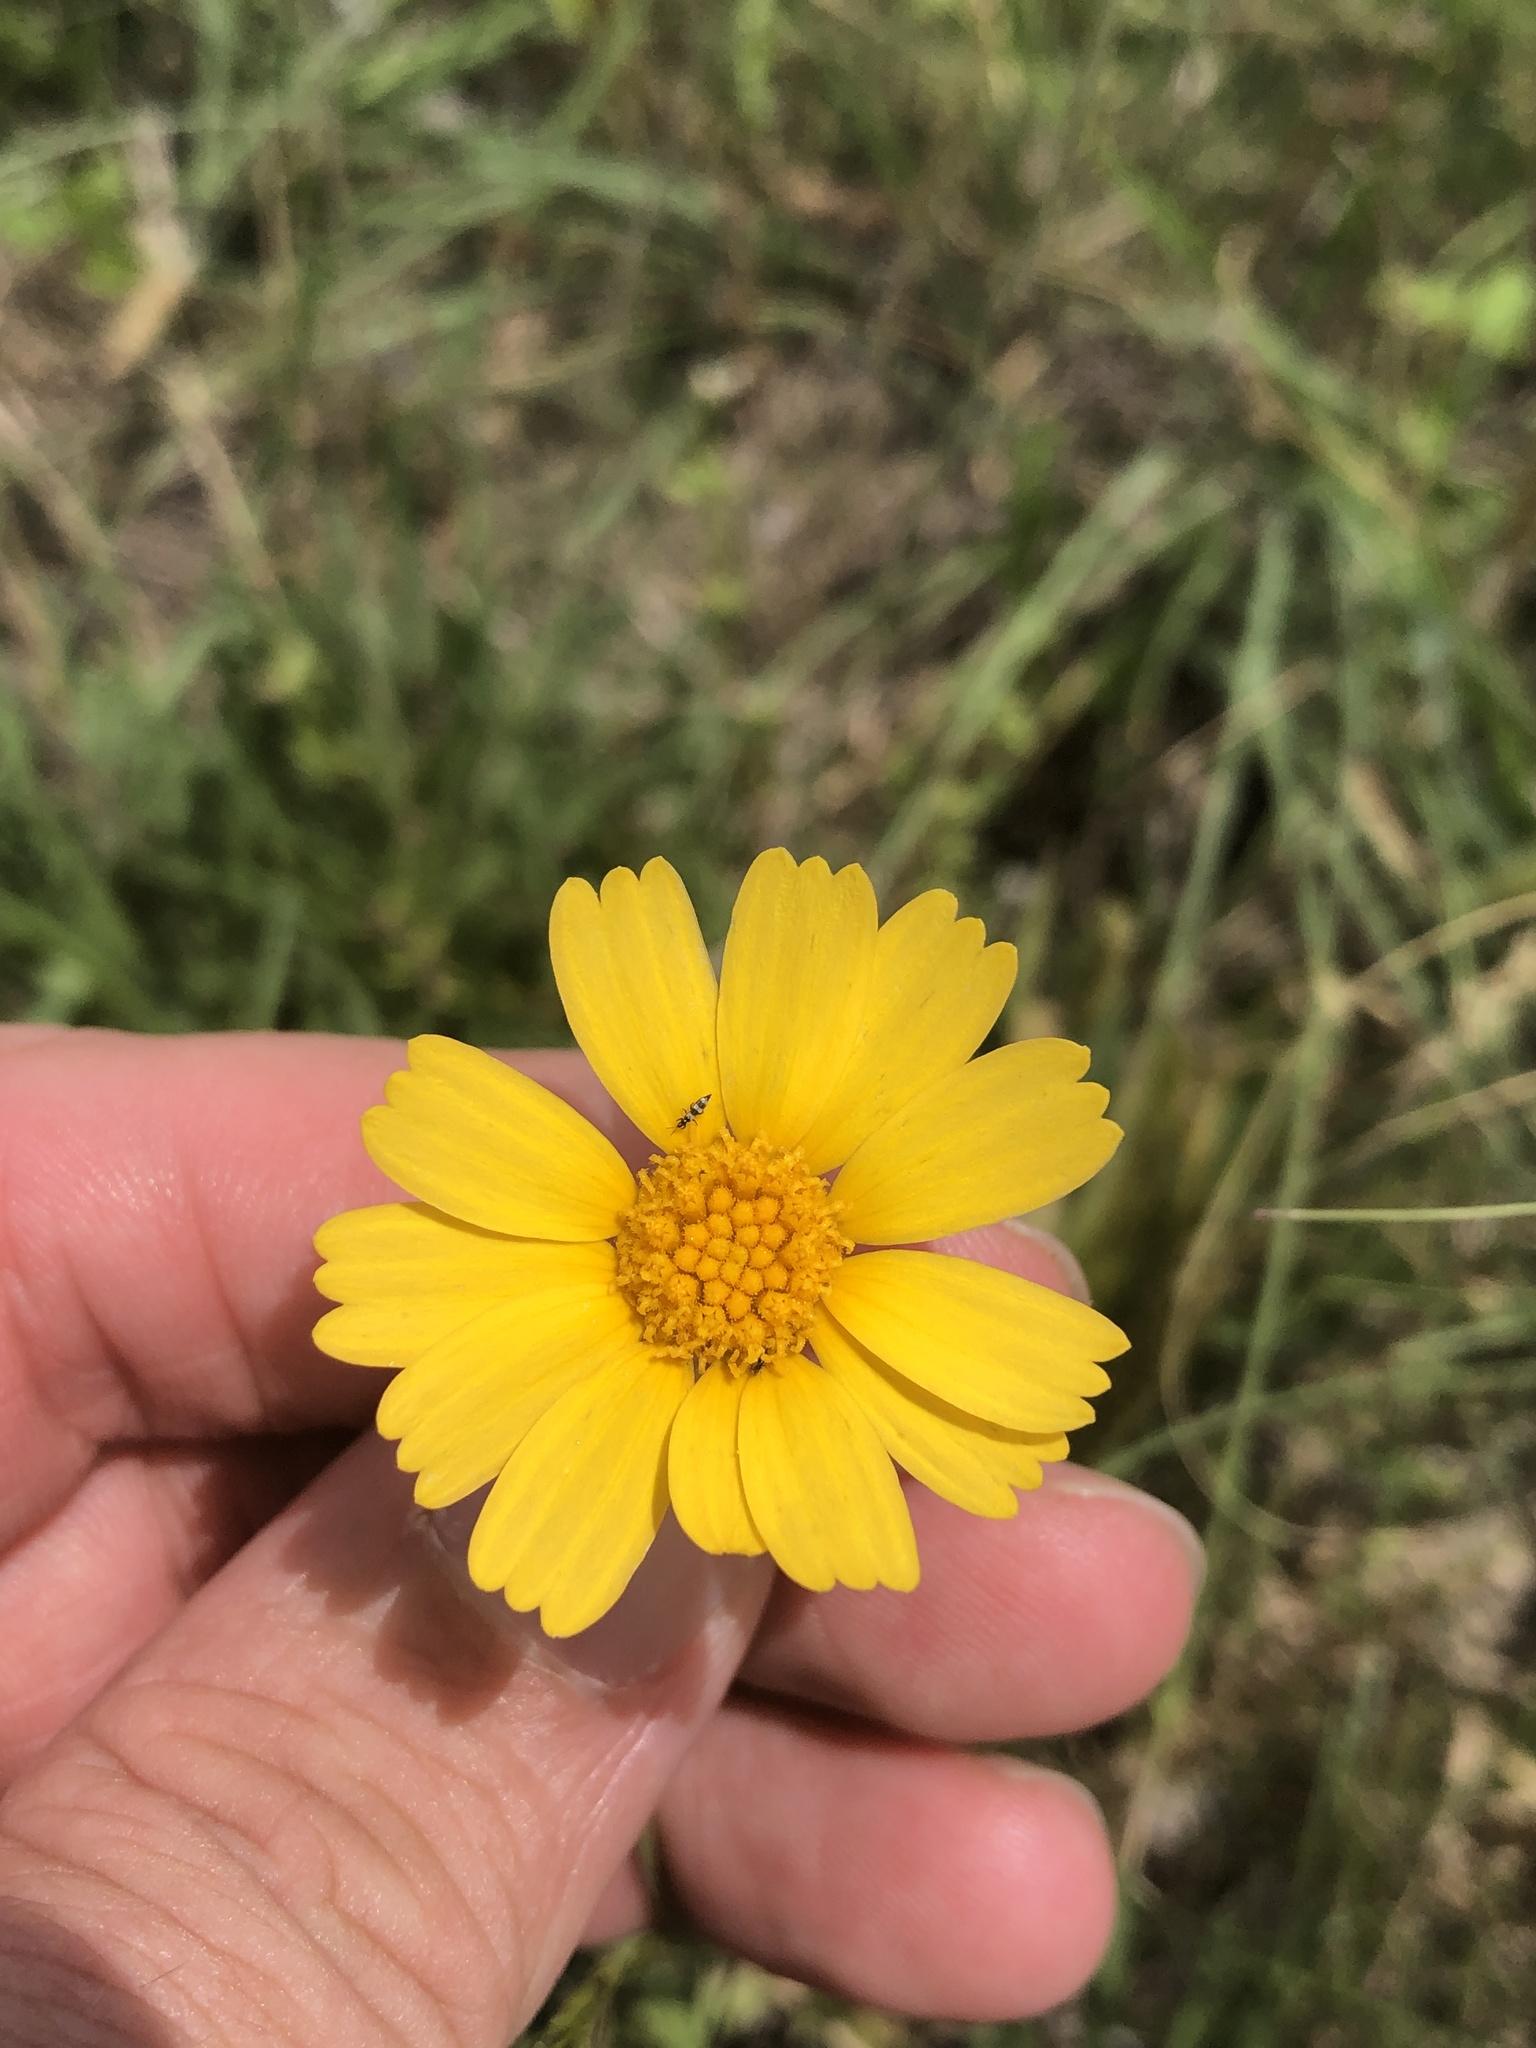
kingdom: Plantae
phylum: Tracheophyta
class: Magnoliopsida
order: Asterales
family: Asteraceae
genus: Tetraneuris
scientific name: Tetraneuris scaposa
